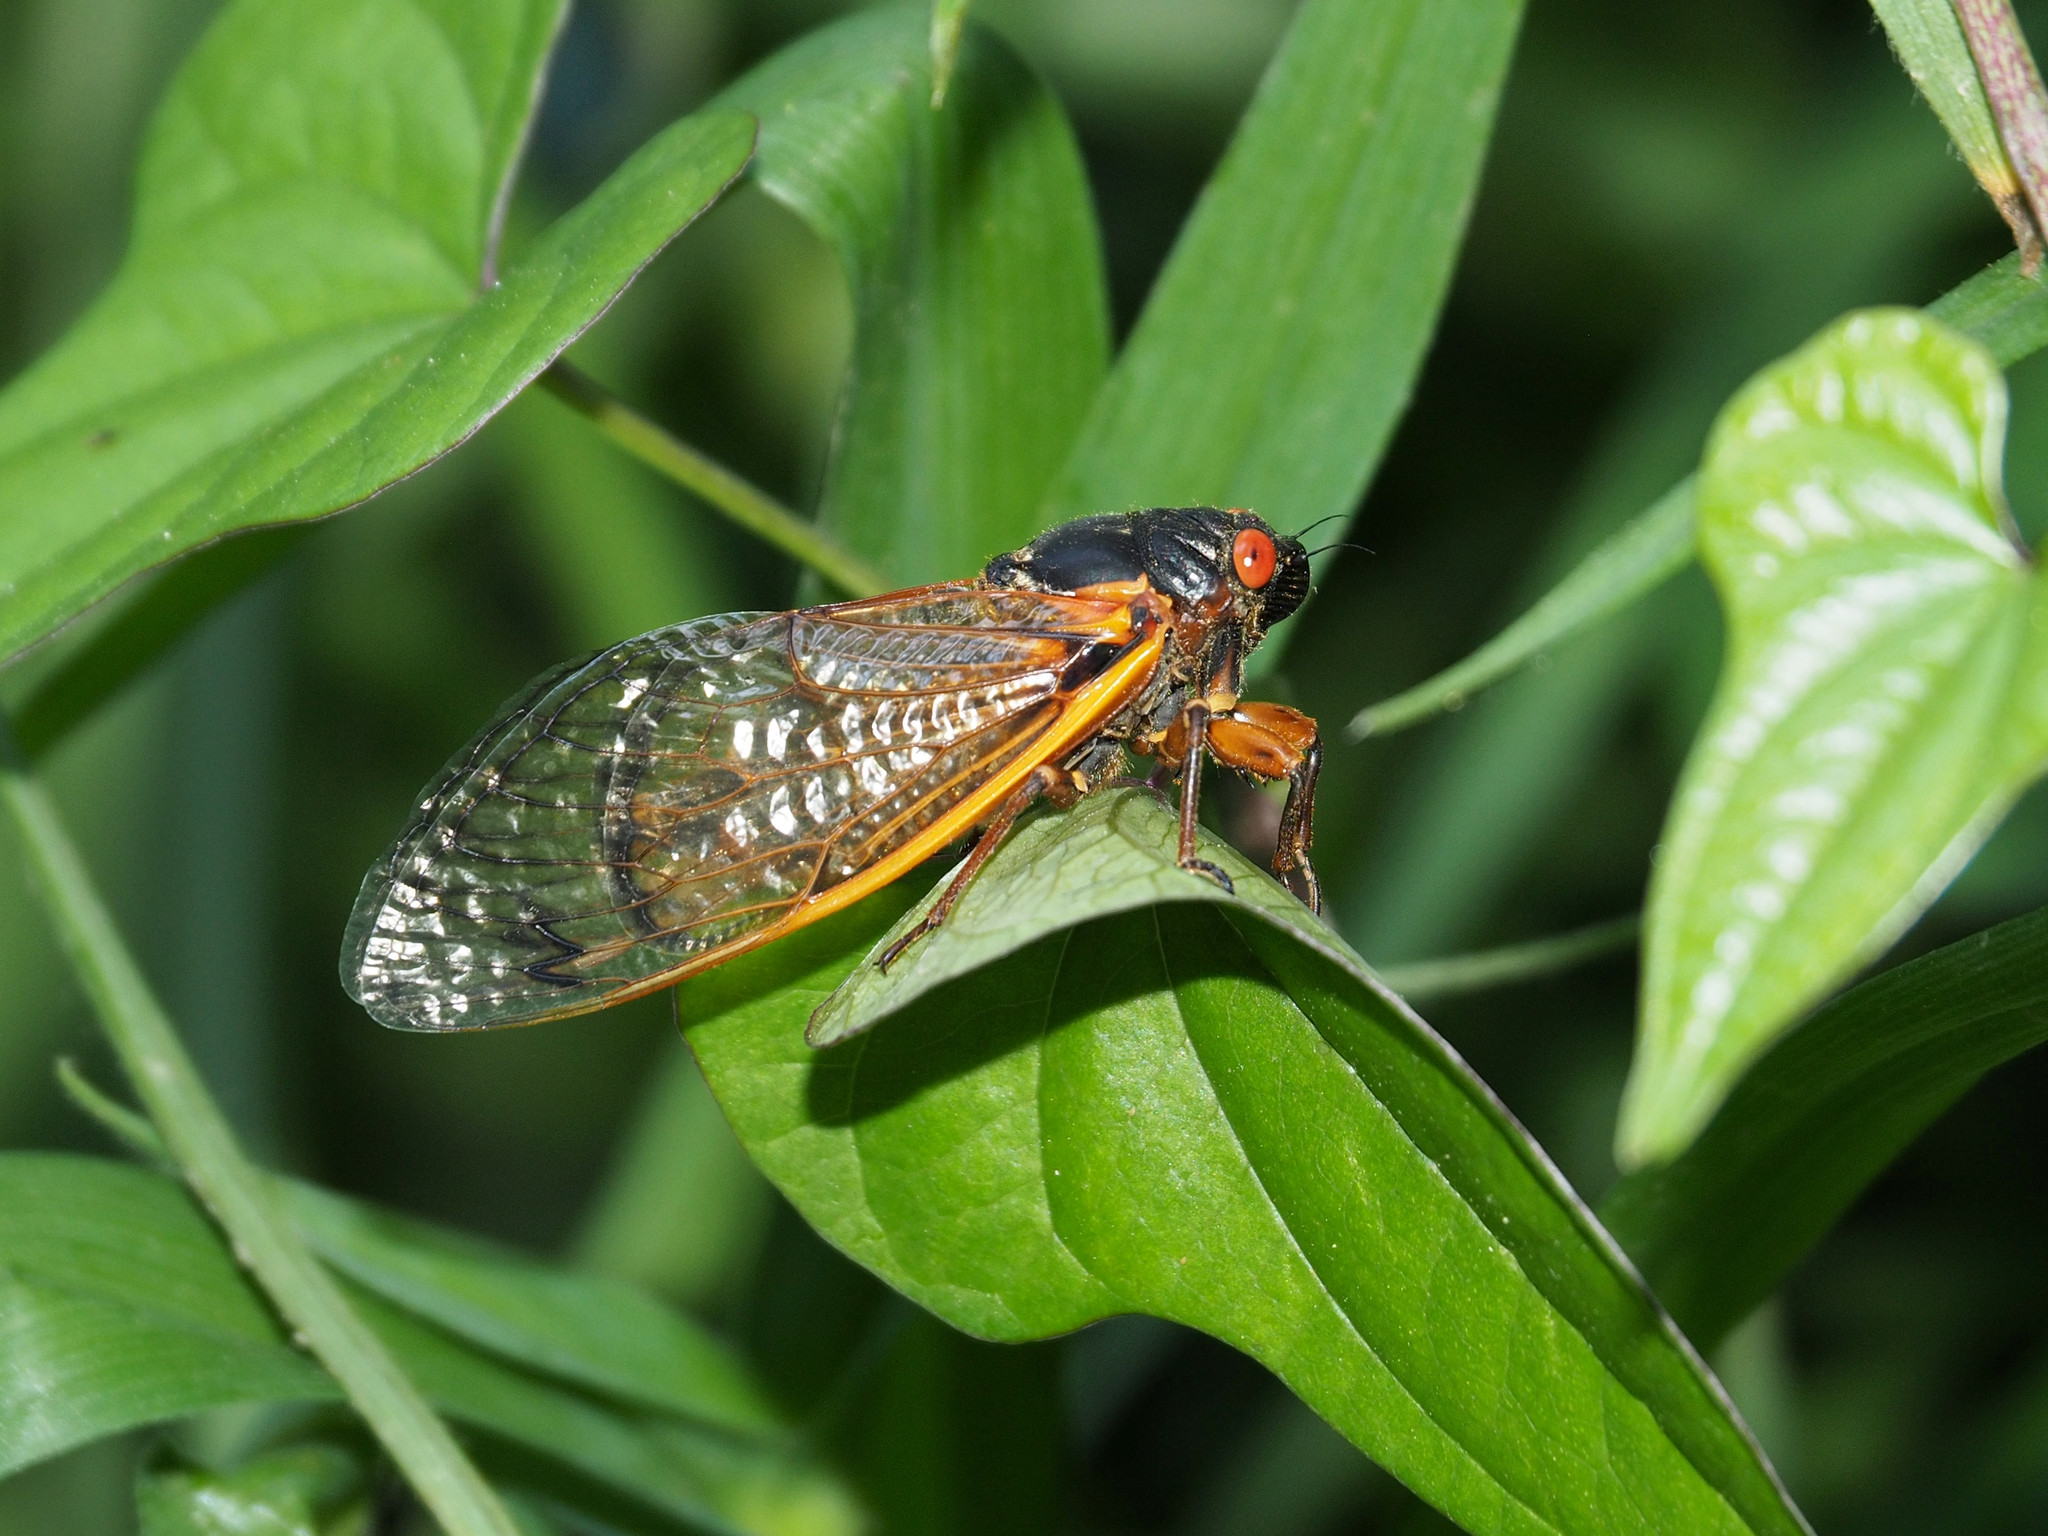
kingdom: Animalia
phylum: Arthropoda
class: Insecta
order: Hemiptera
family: Cicadidae
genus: Magicicada
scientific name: Magicicada septendecim
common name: Periodical cicada
